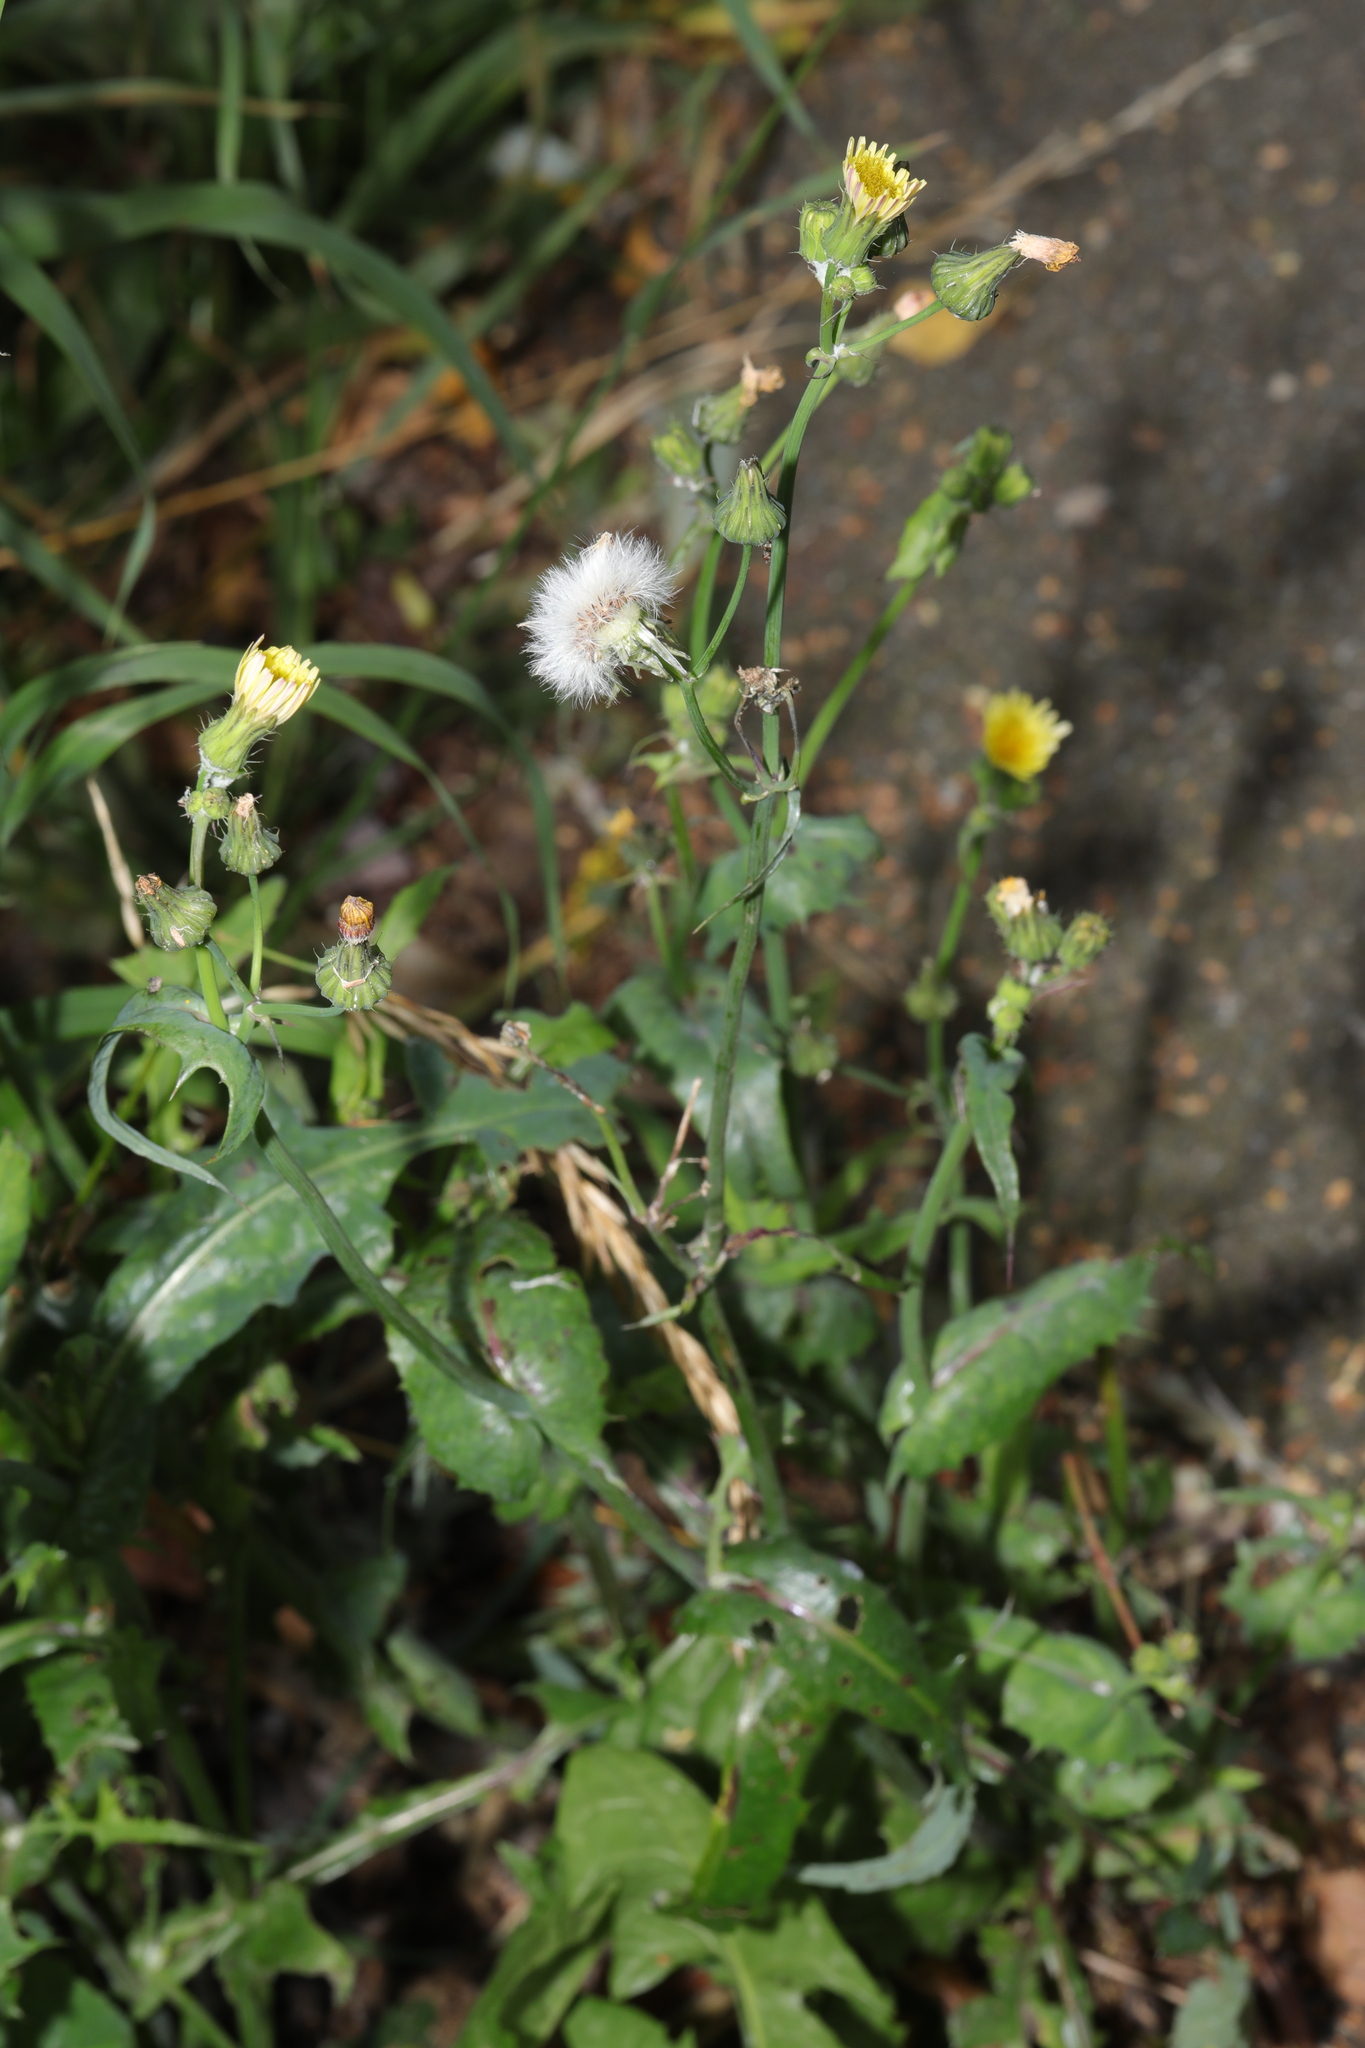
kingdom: Plantae
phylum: Tracheophyta
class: Magnoliopsida
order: Asterales
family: Asteraceae
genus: Sonchus
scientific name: Sonchus oleraceus
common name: Common sowthistle
